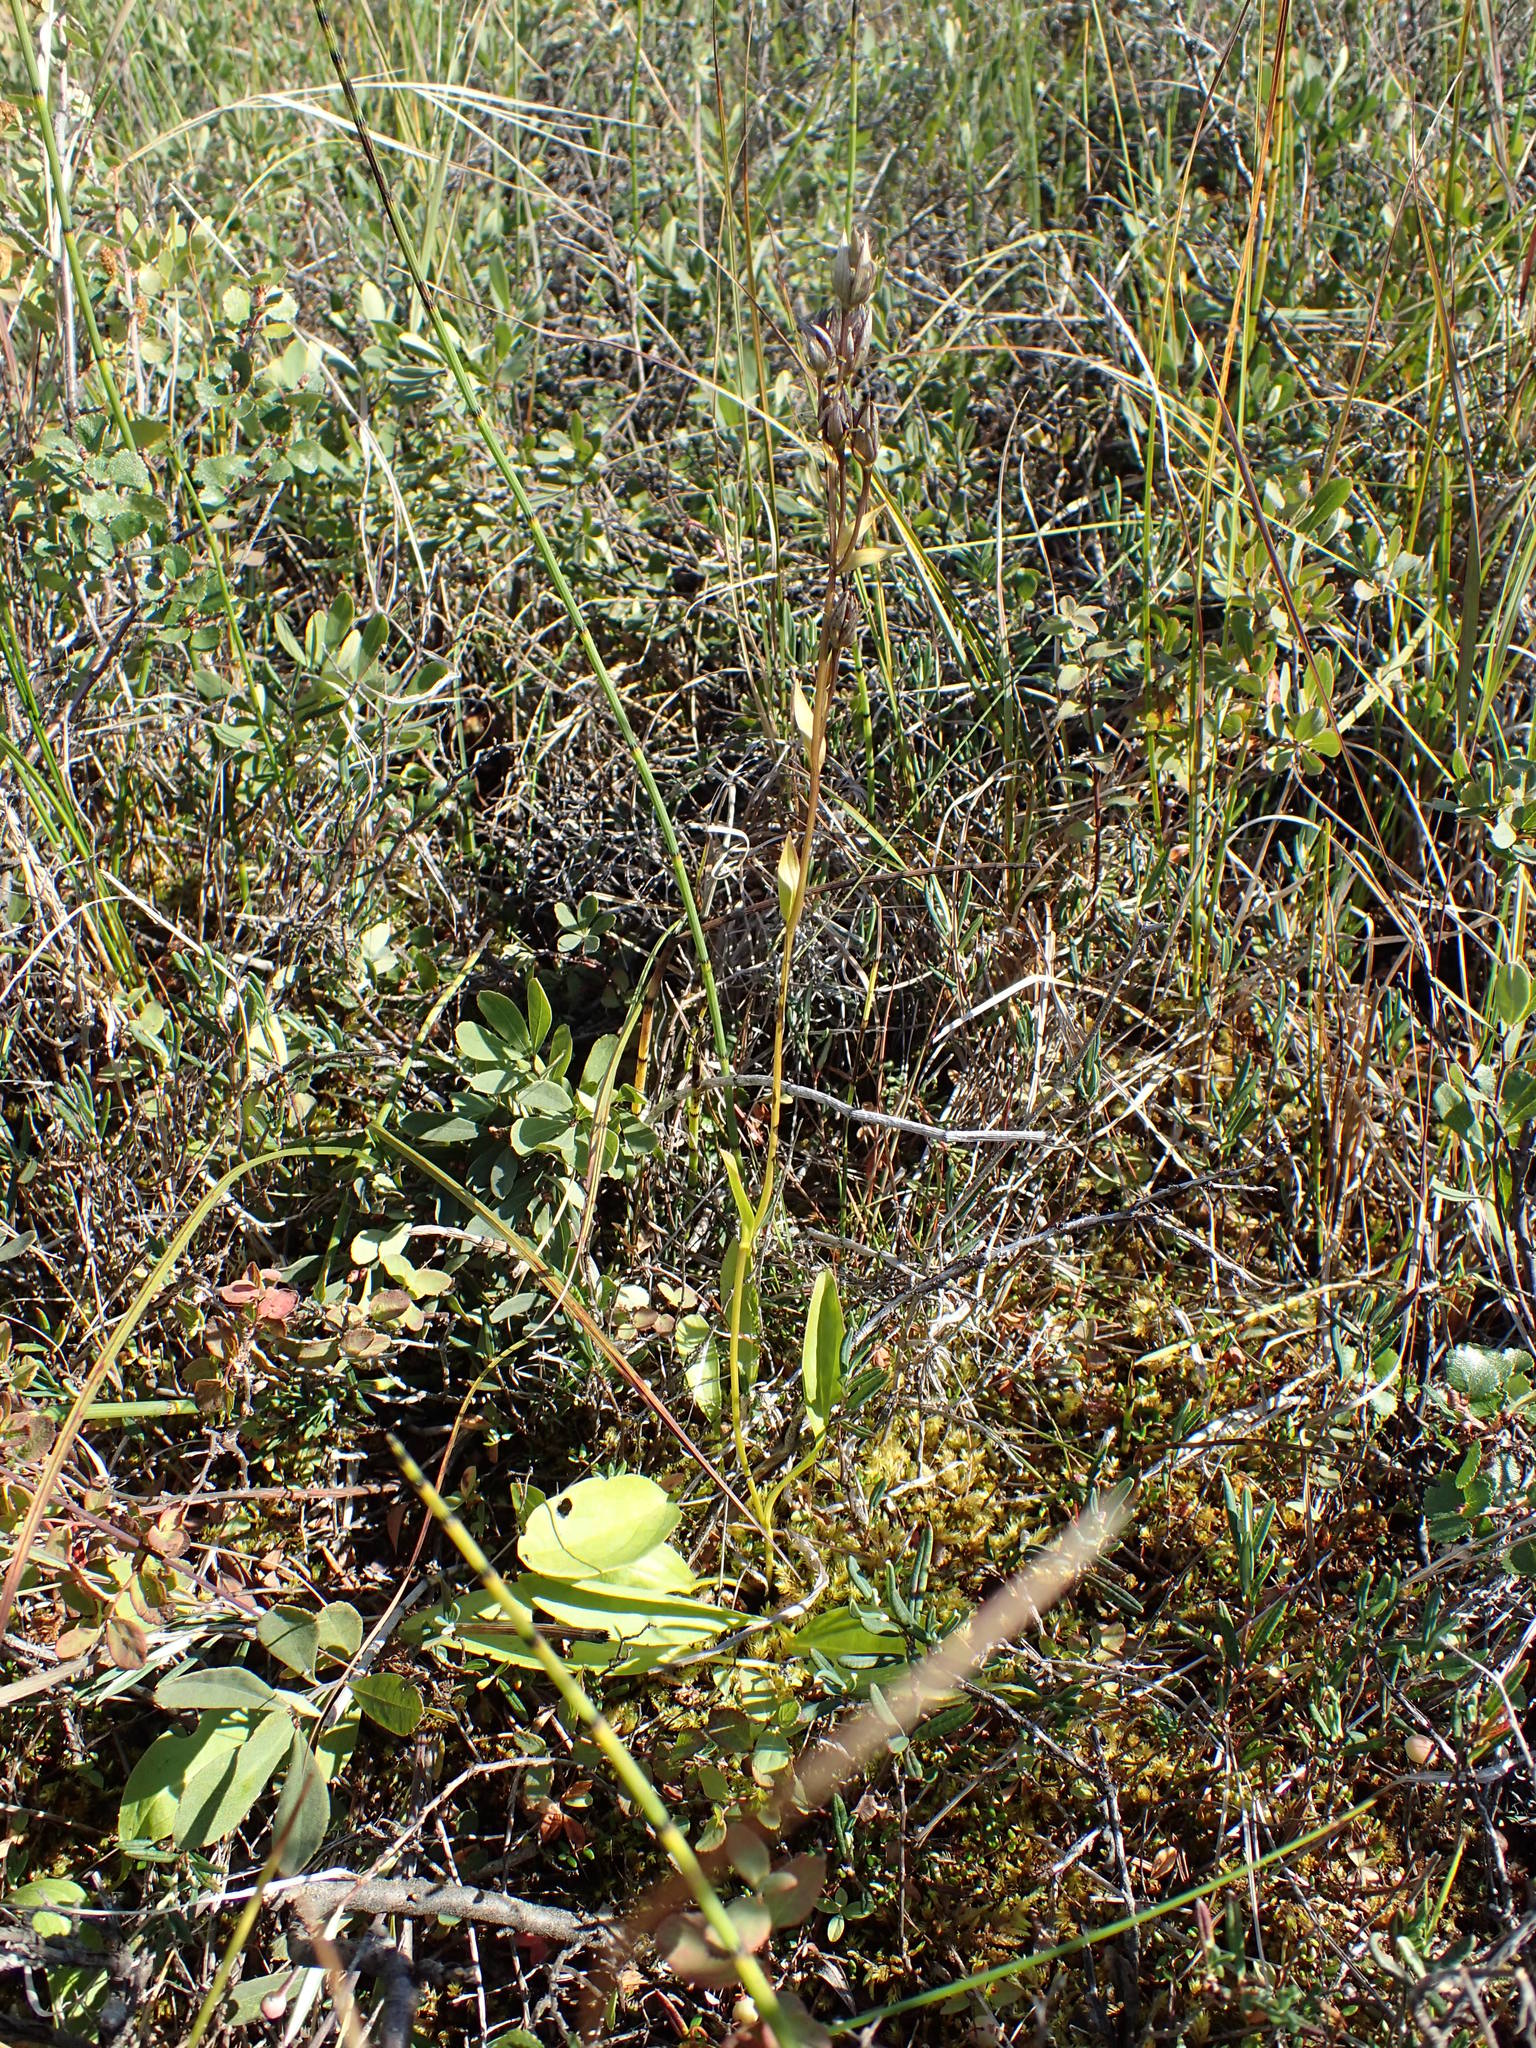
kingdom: Plantae
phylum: Tracheophyta
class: Magnoliopsida
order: Gentianales
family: Gentianaceae
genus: Swertia
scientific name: Swertia perennis
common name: Alpine bog swertia
